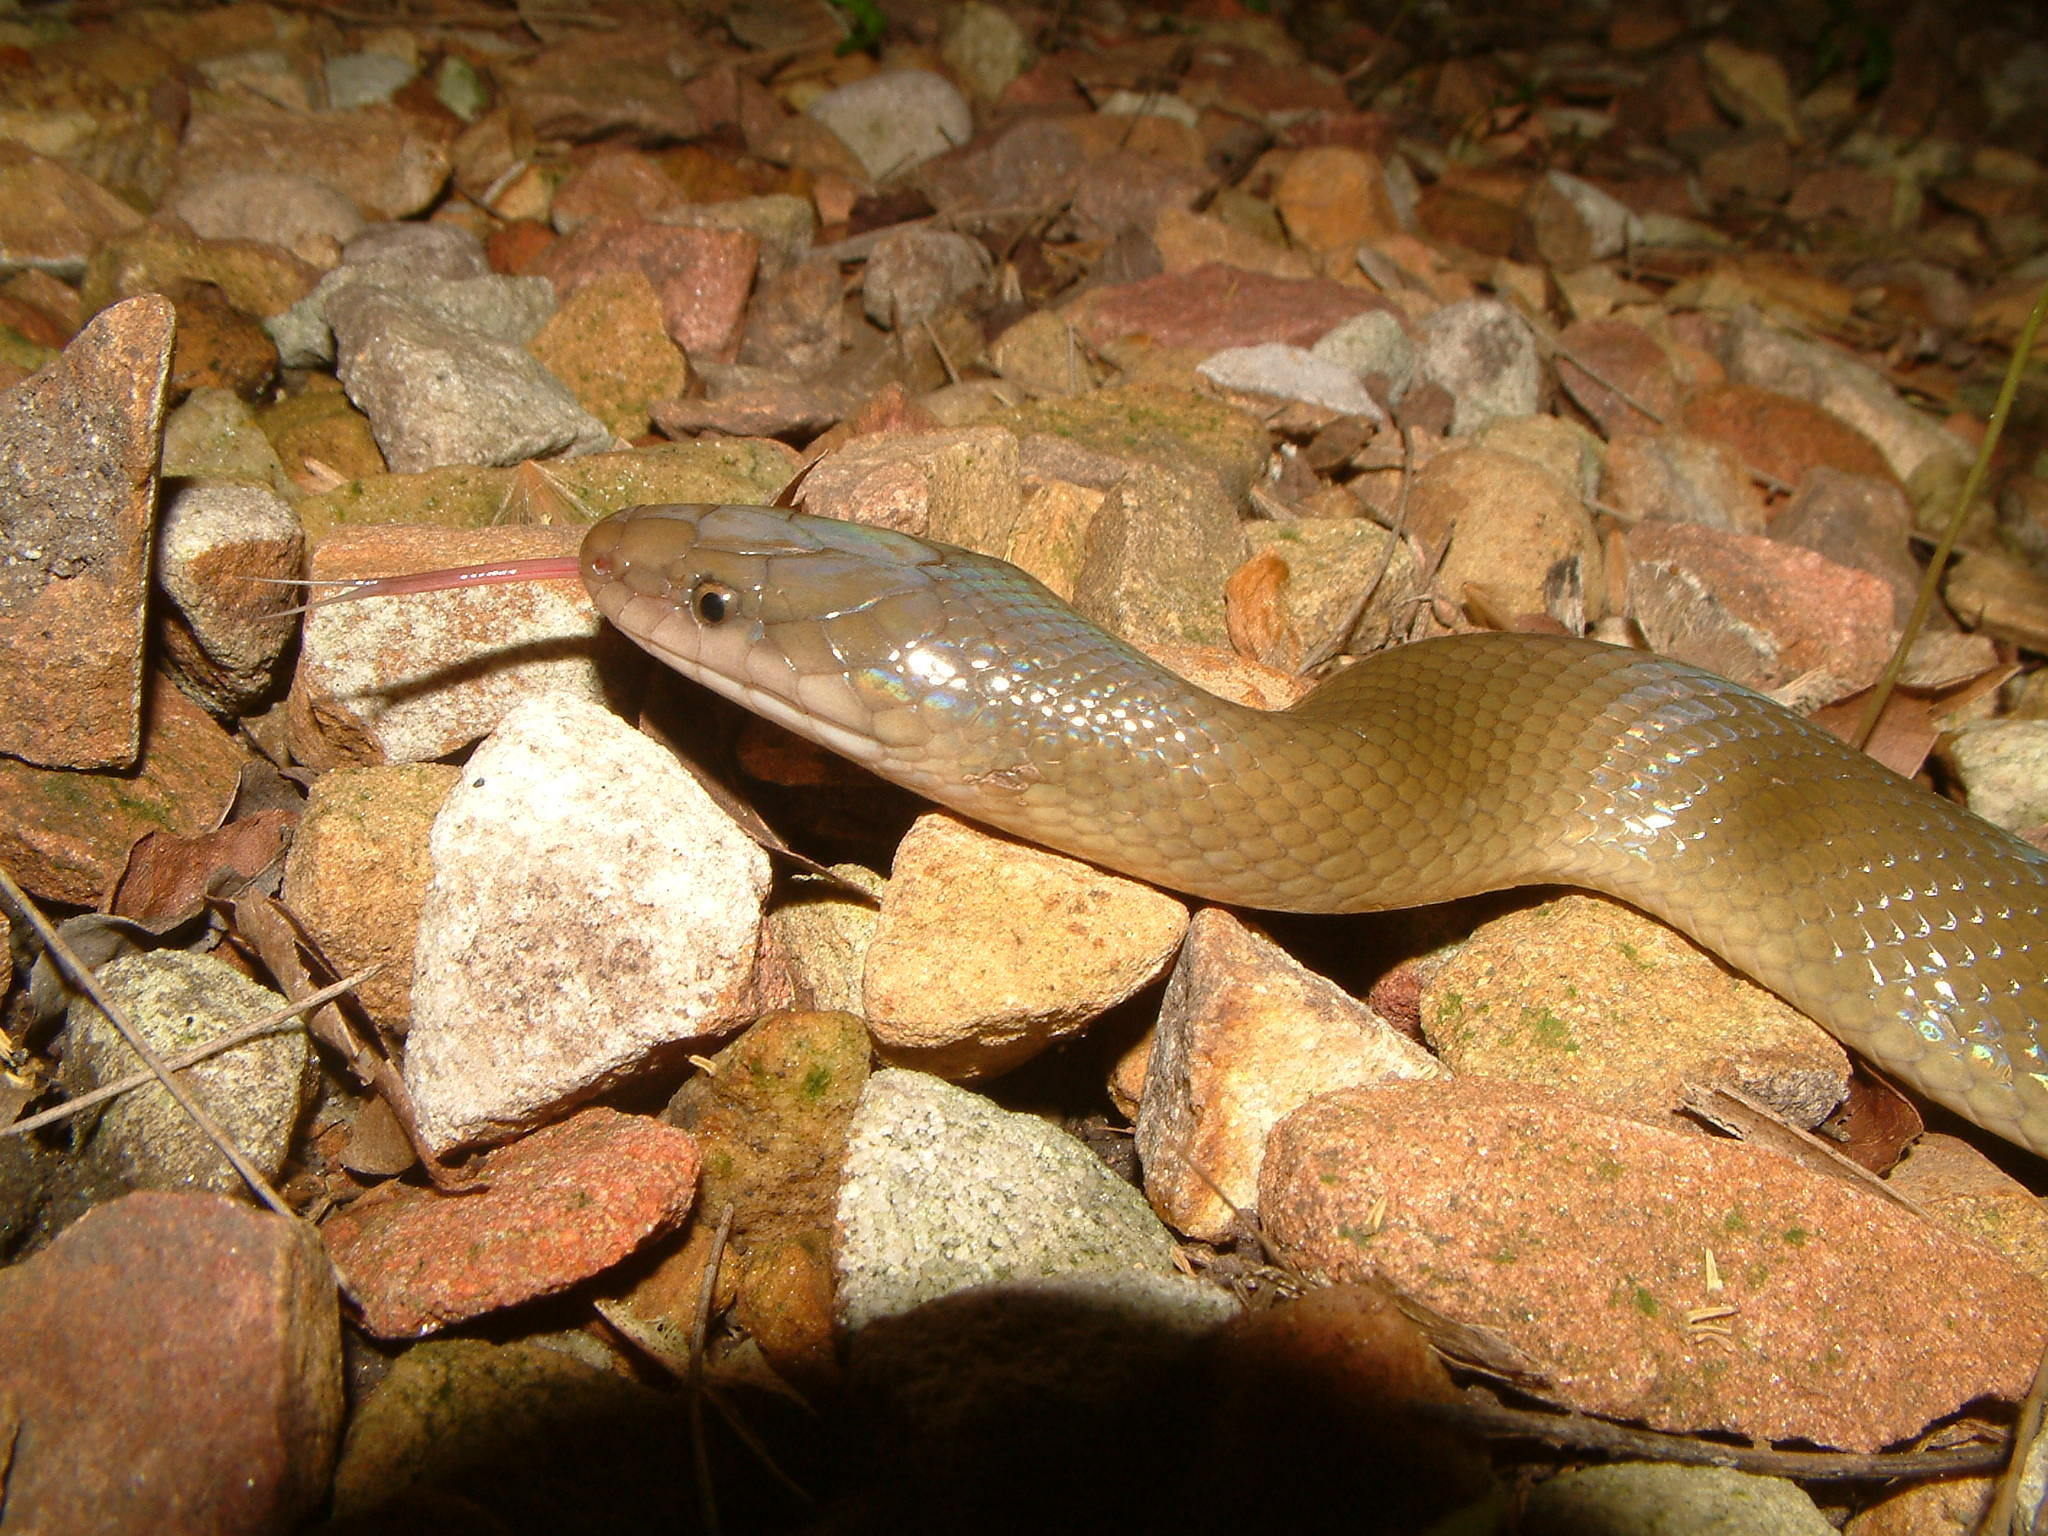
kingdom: Animalia
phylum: Chordata
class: Squamata
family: Lamprophiidae
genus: Lycodonomorphus
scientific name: Lycodonomorphus inornatus
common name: Black house snake
